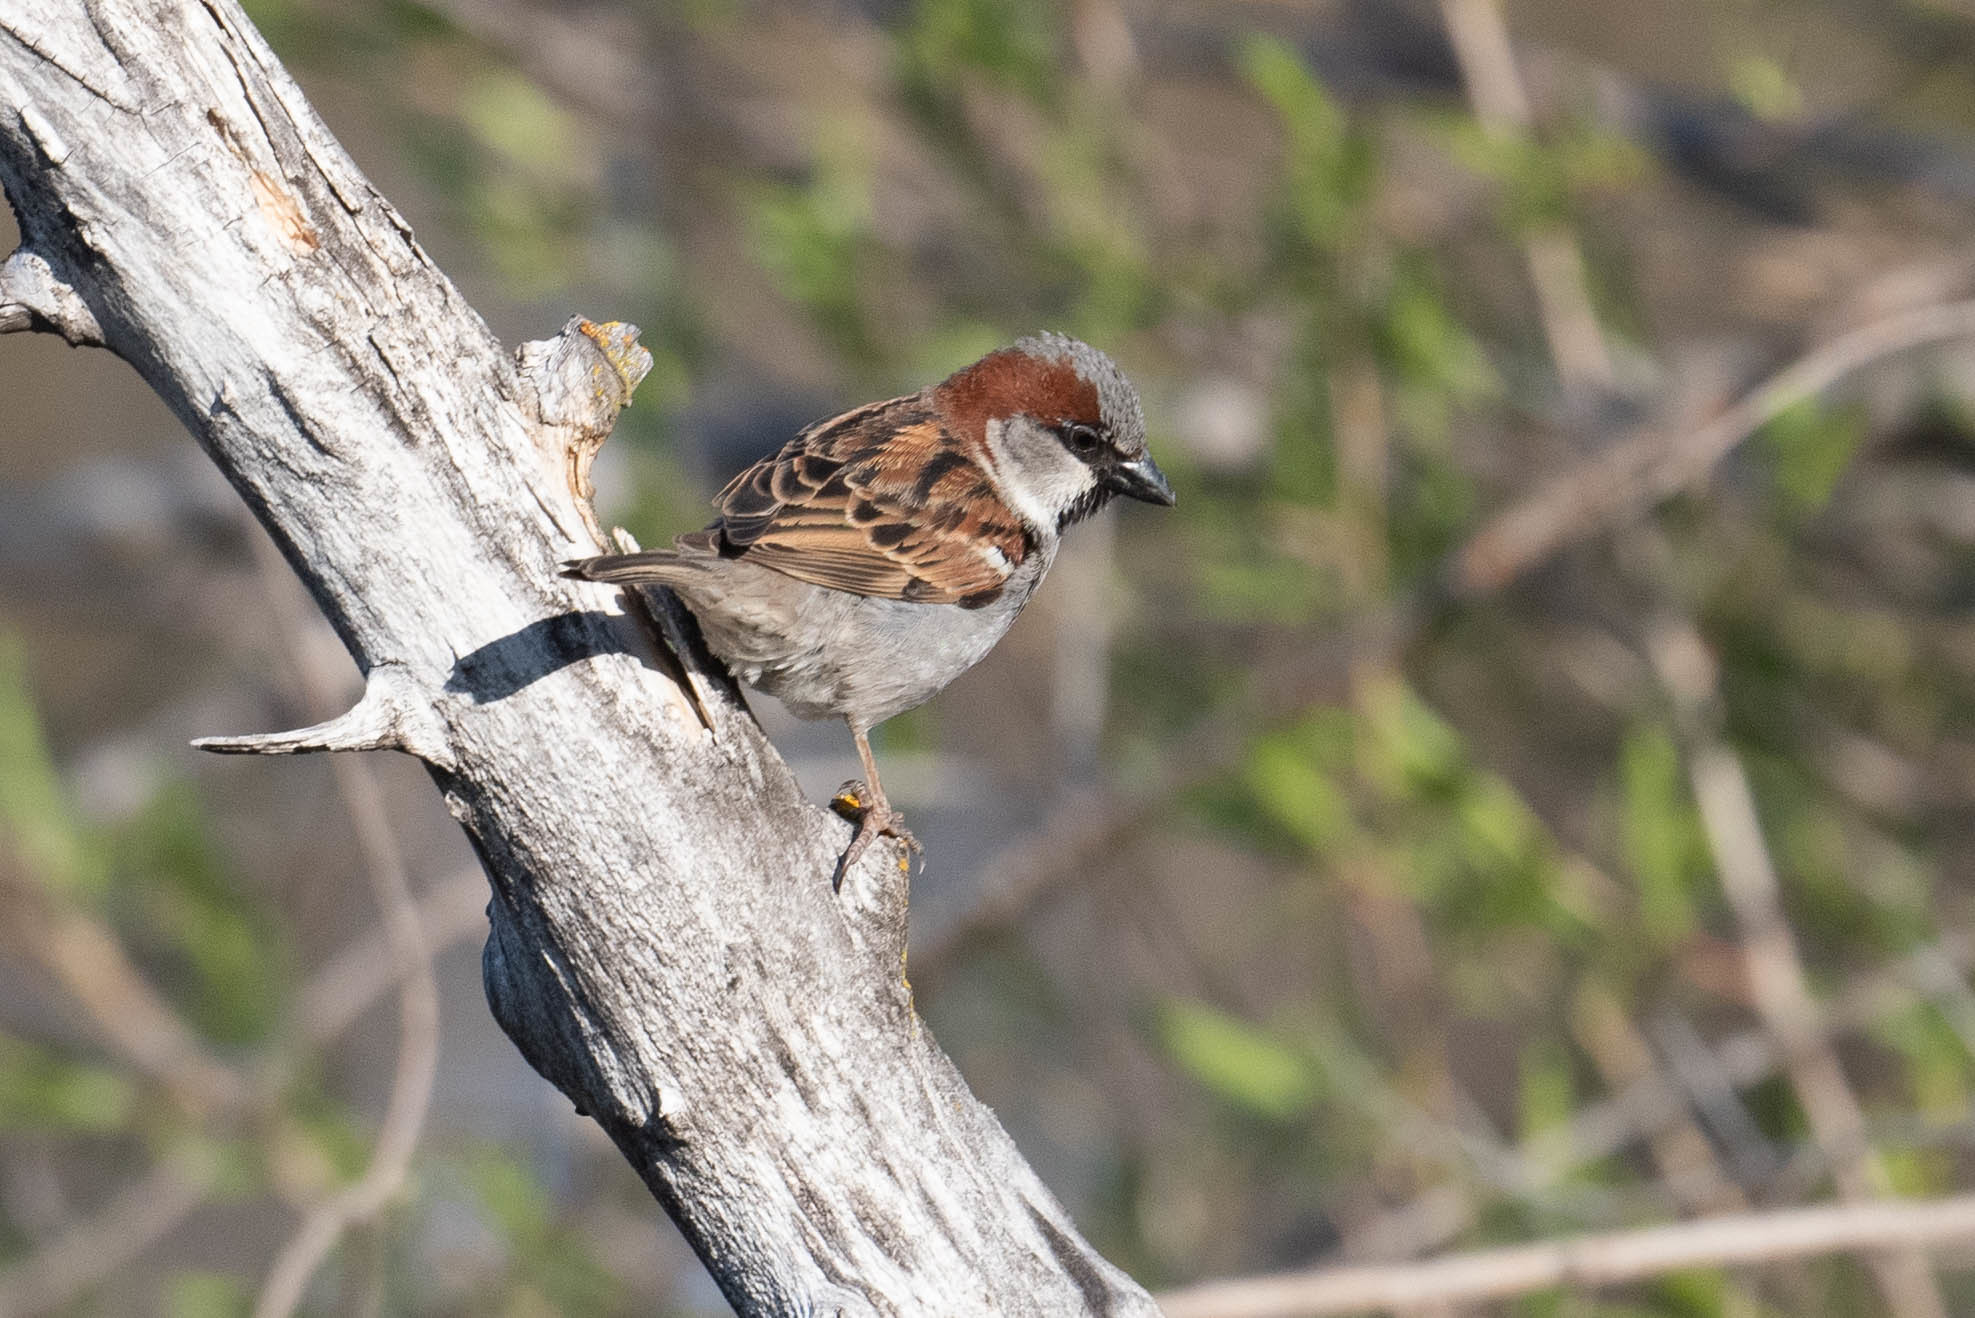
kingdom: Animalia
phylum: Chordata
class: Aves
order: Passeriformes
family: Passeridae
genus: Passer
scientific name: Passer domesticus
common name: House sparrow
